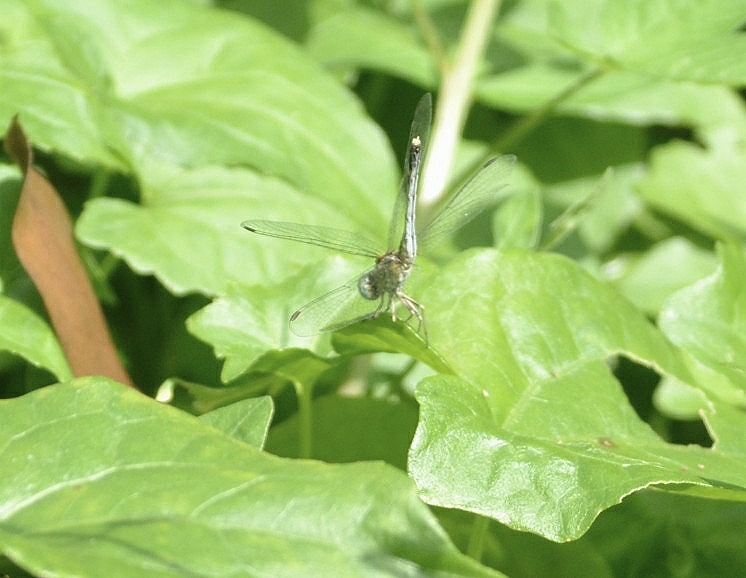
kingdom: Animalia
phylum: Arthropoda
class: Insecta
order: Odonata
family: Libellulidae
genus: Diplacodes
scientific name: Diplacodes trivialis
